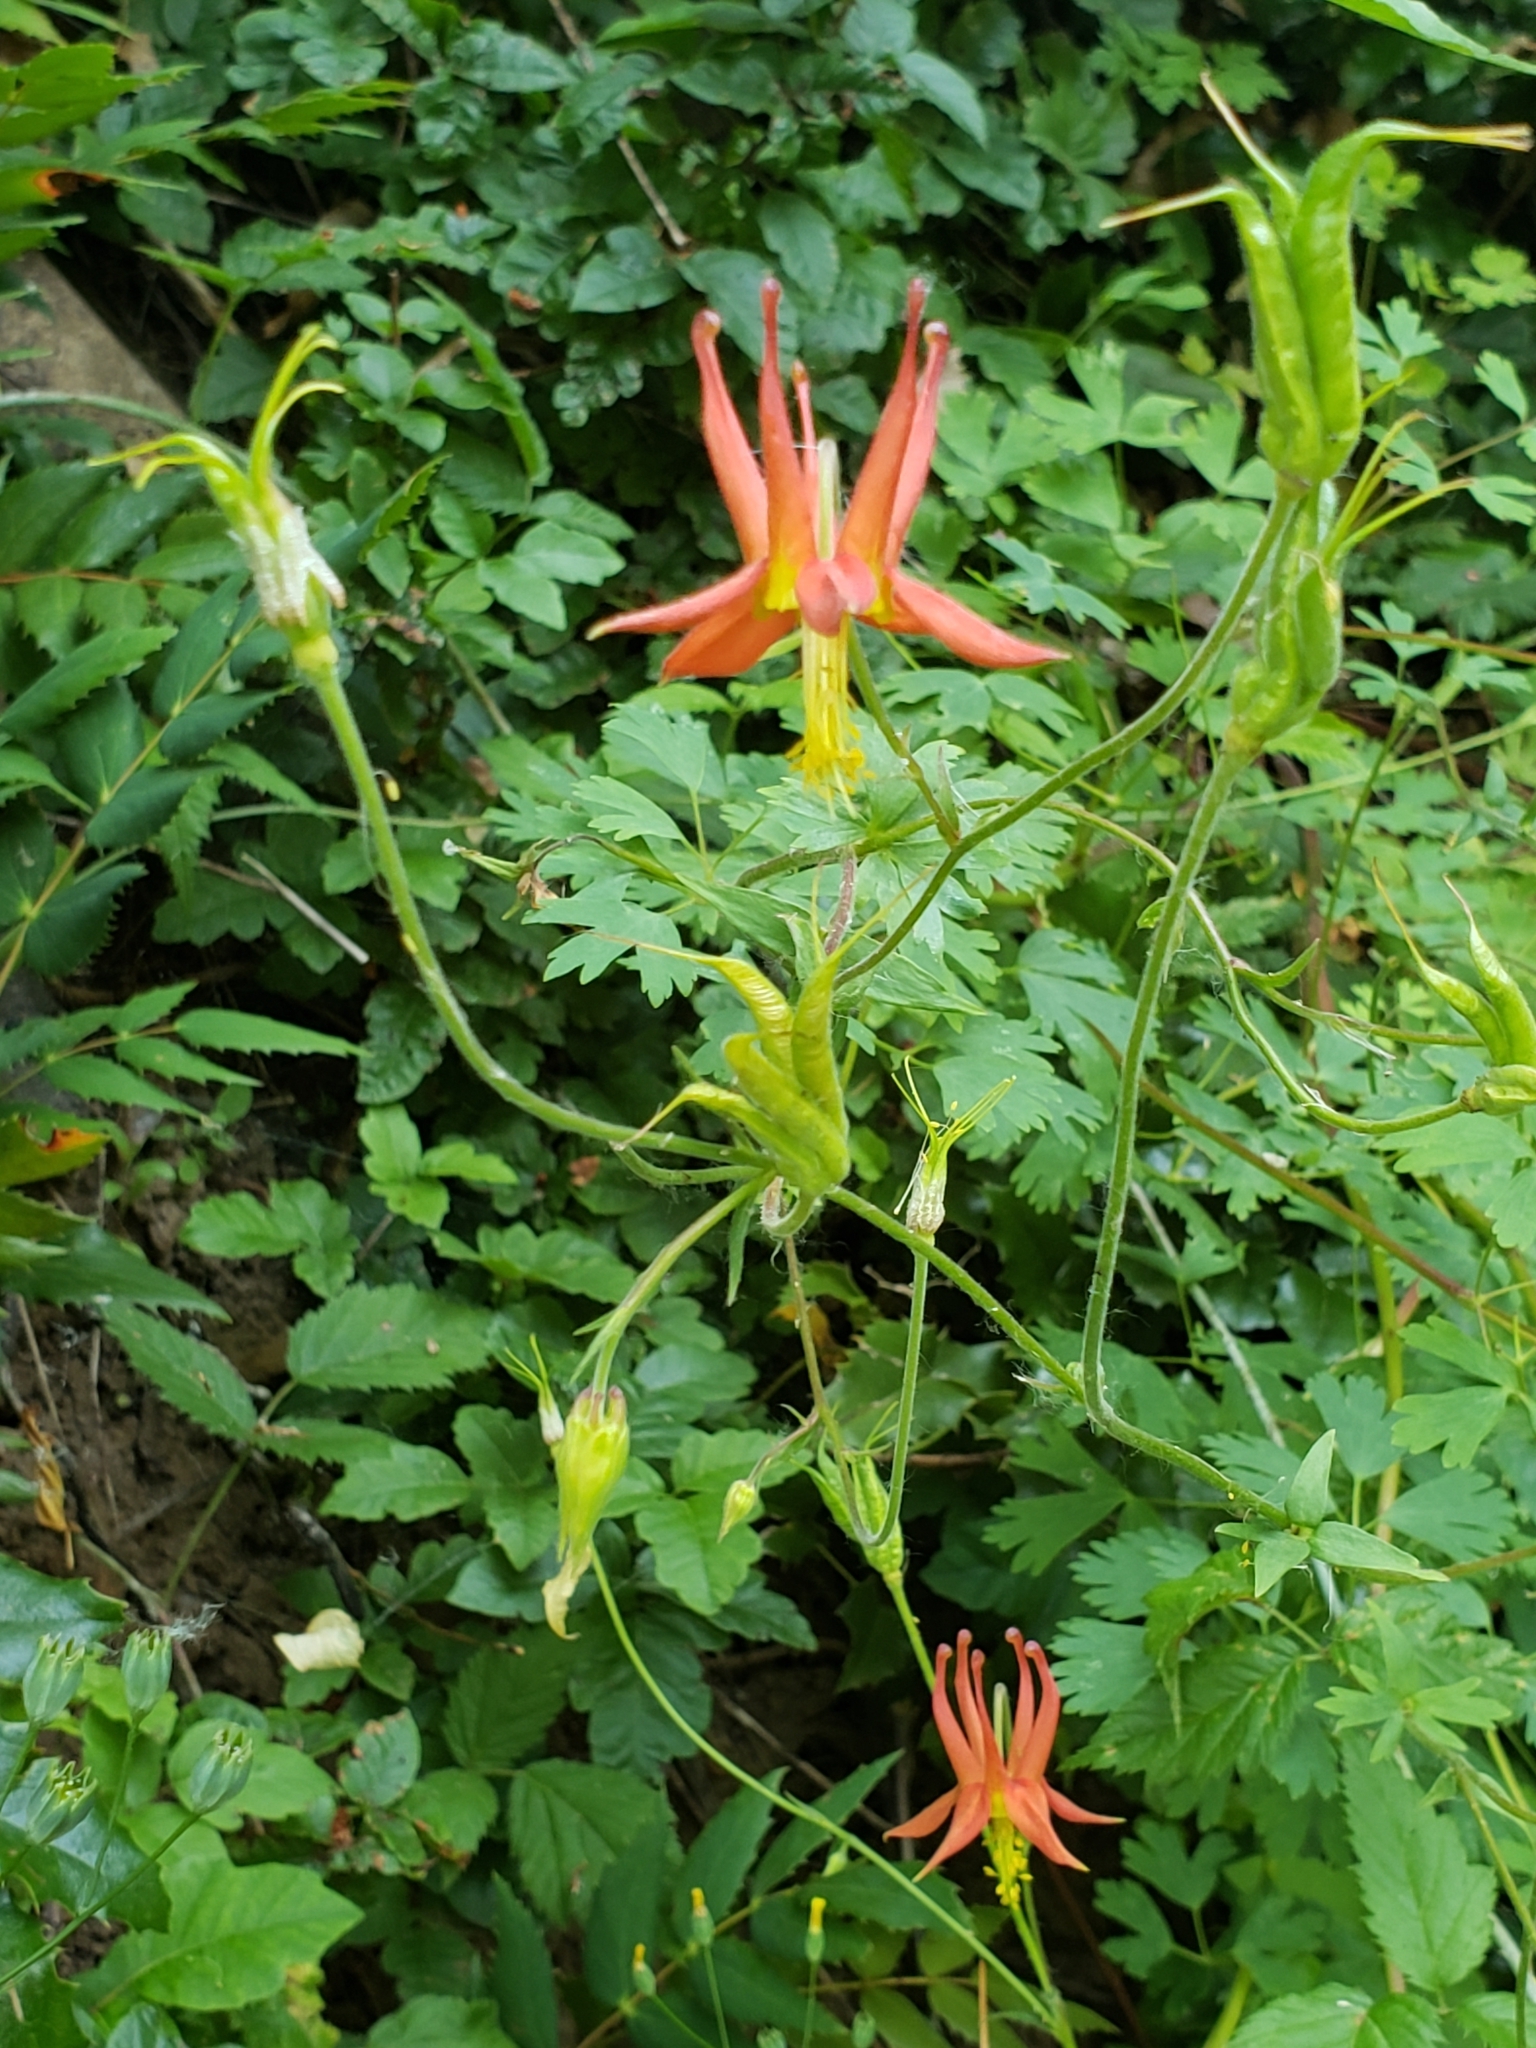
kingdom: Plantae
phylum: Tracheophyta
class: Magnoliopsida
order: Ranunculales
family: Ranunculaceae
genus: Aquilegia
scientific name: Aquilegia formosa
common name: Sitka columbine
